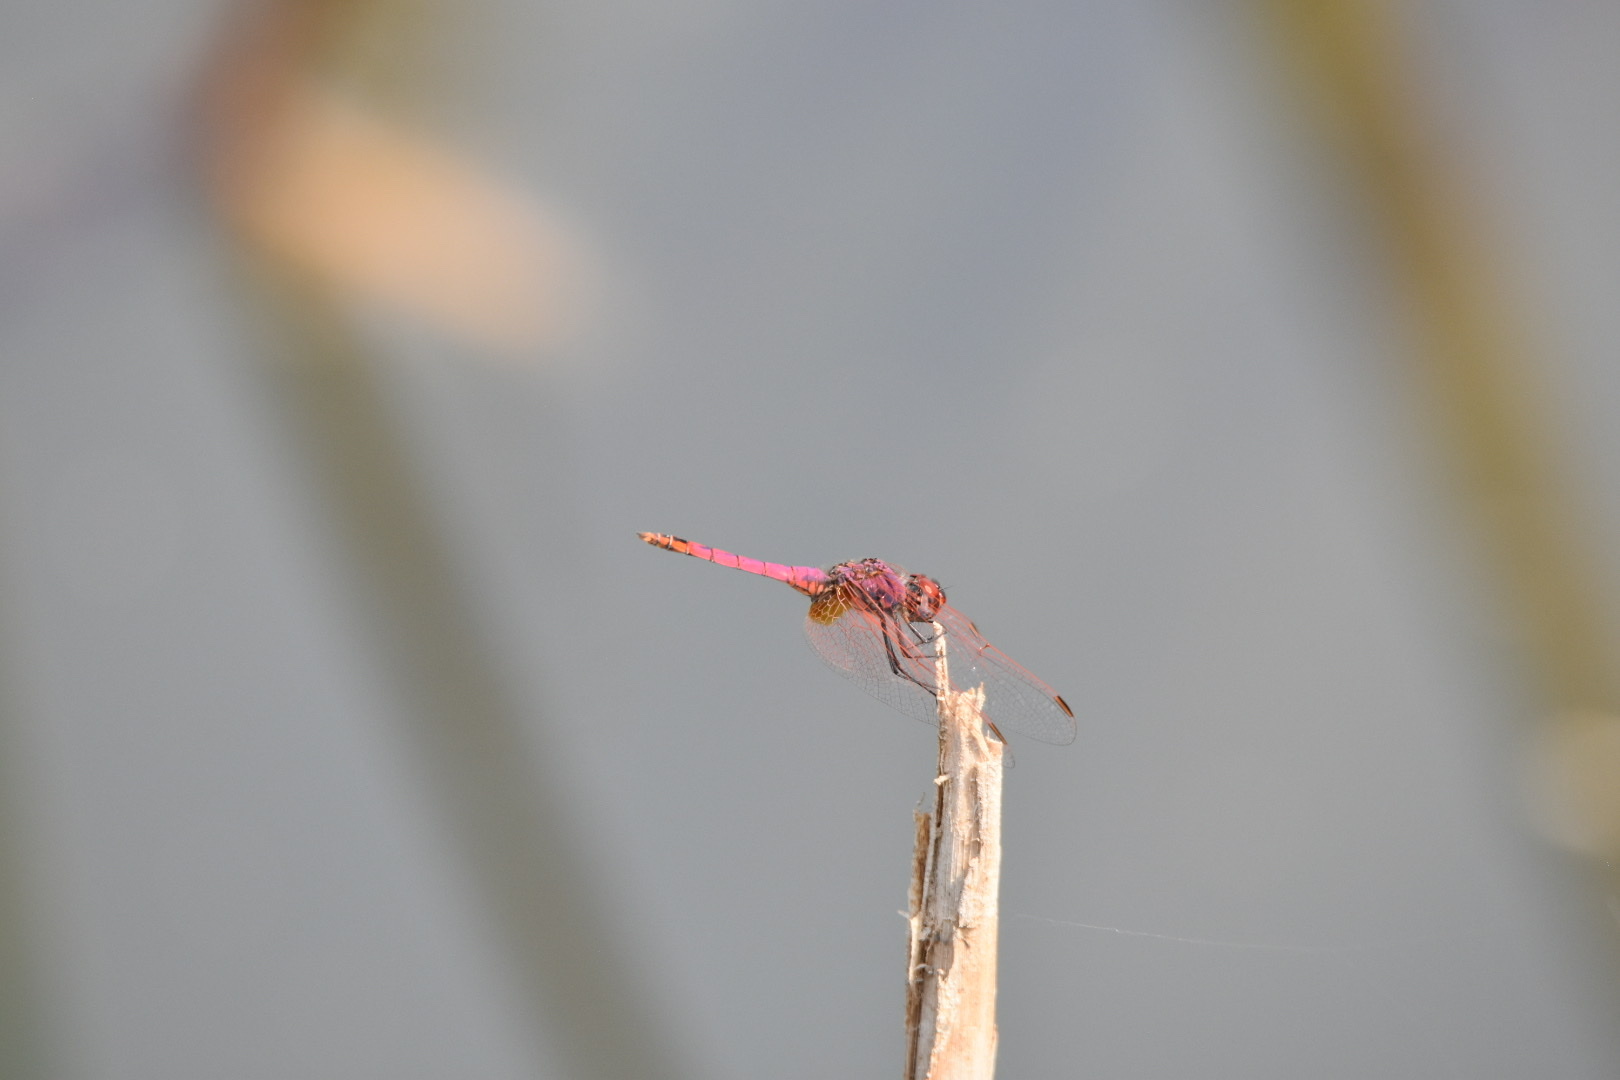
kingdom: Animalia
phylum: Arthropoda
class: Insecta
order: Odonata
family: Libellulidae
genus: Trithemis
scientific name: Trithemis annulata
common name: Violet dropwing
